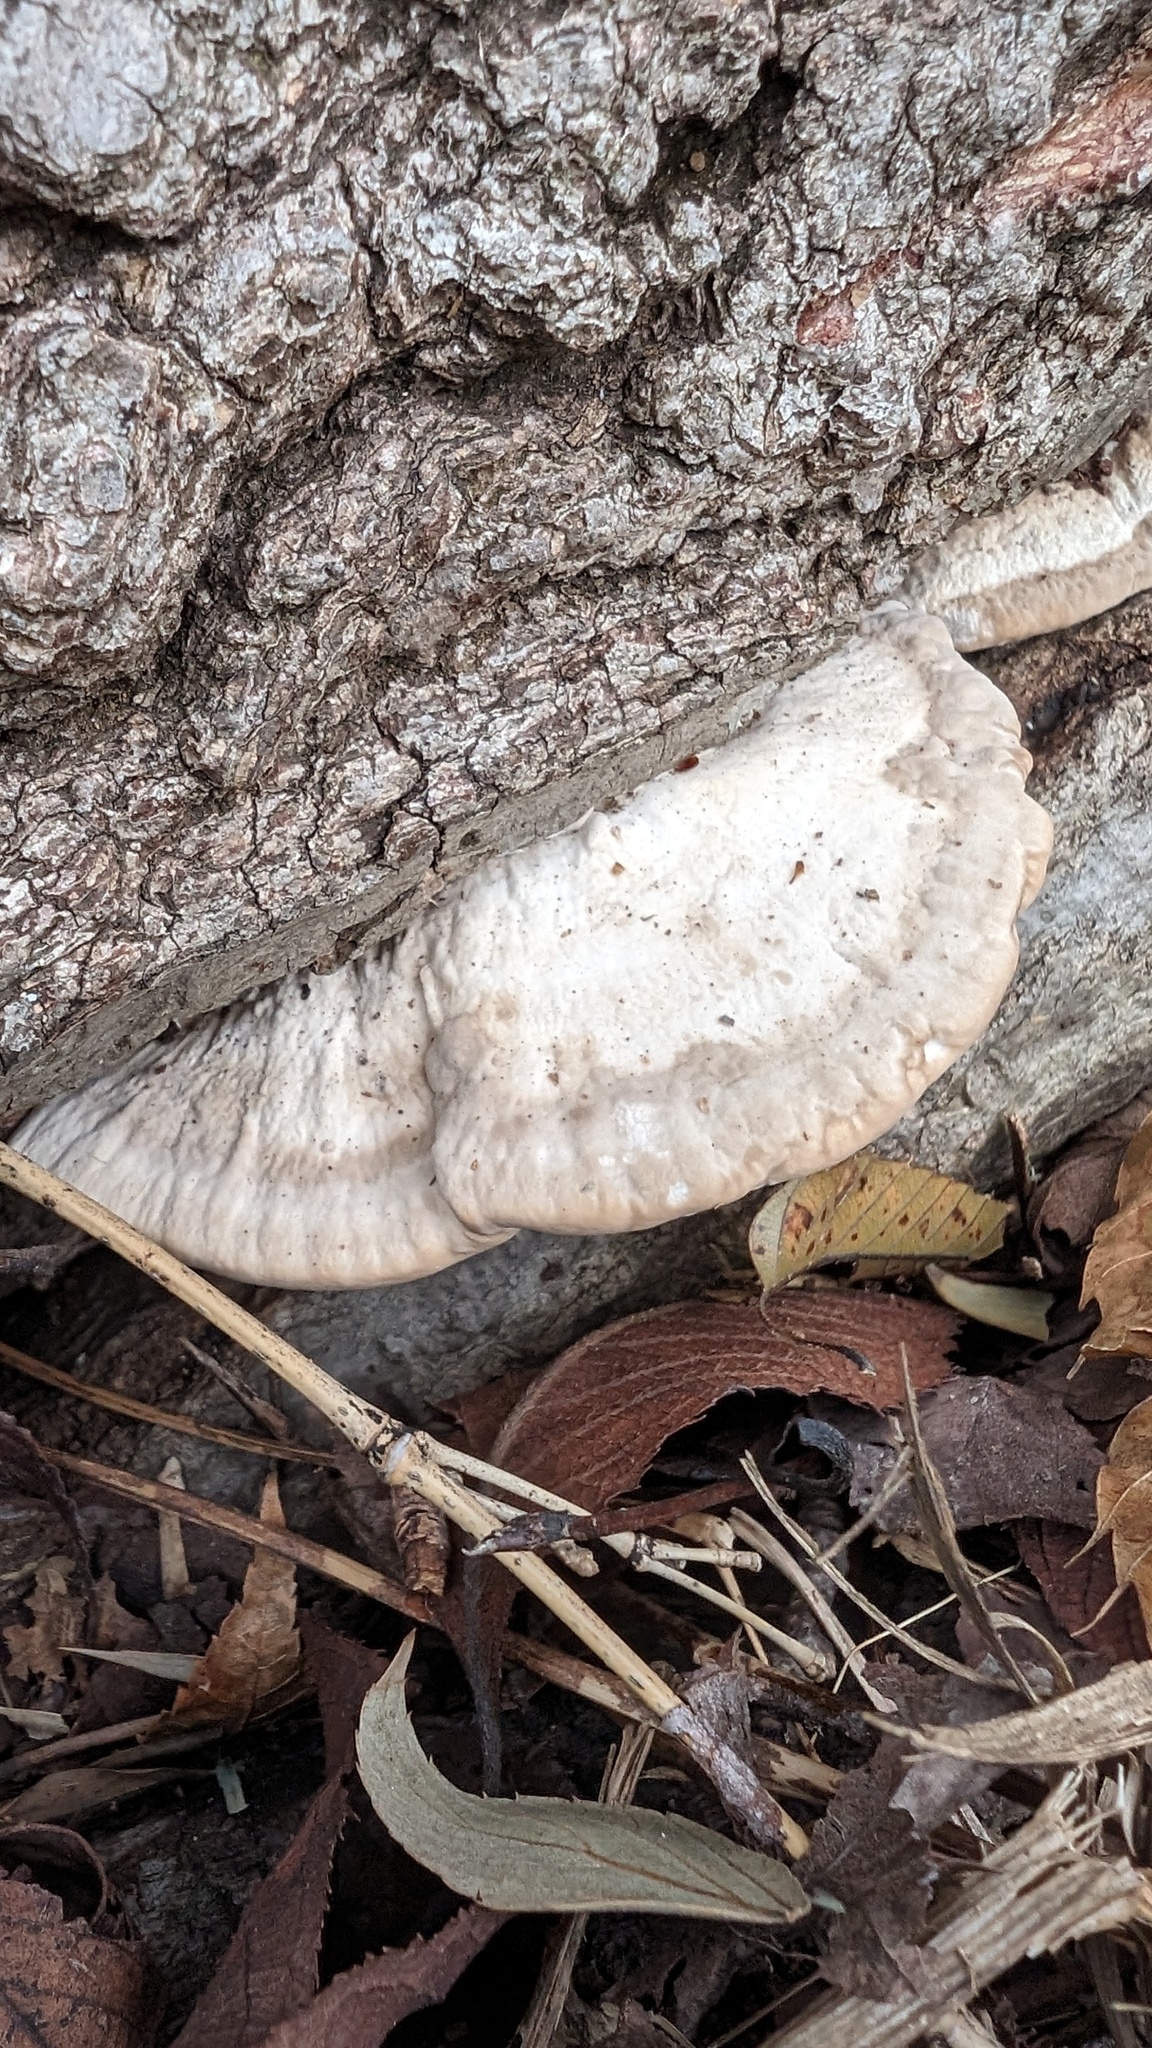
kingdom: Fungi
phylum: Basidiomycota
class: Agaricomycetes
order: Polyporales
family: Polyporaceae
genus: Trametes
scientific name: Trametes orientalis
